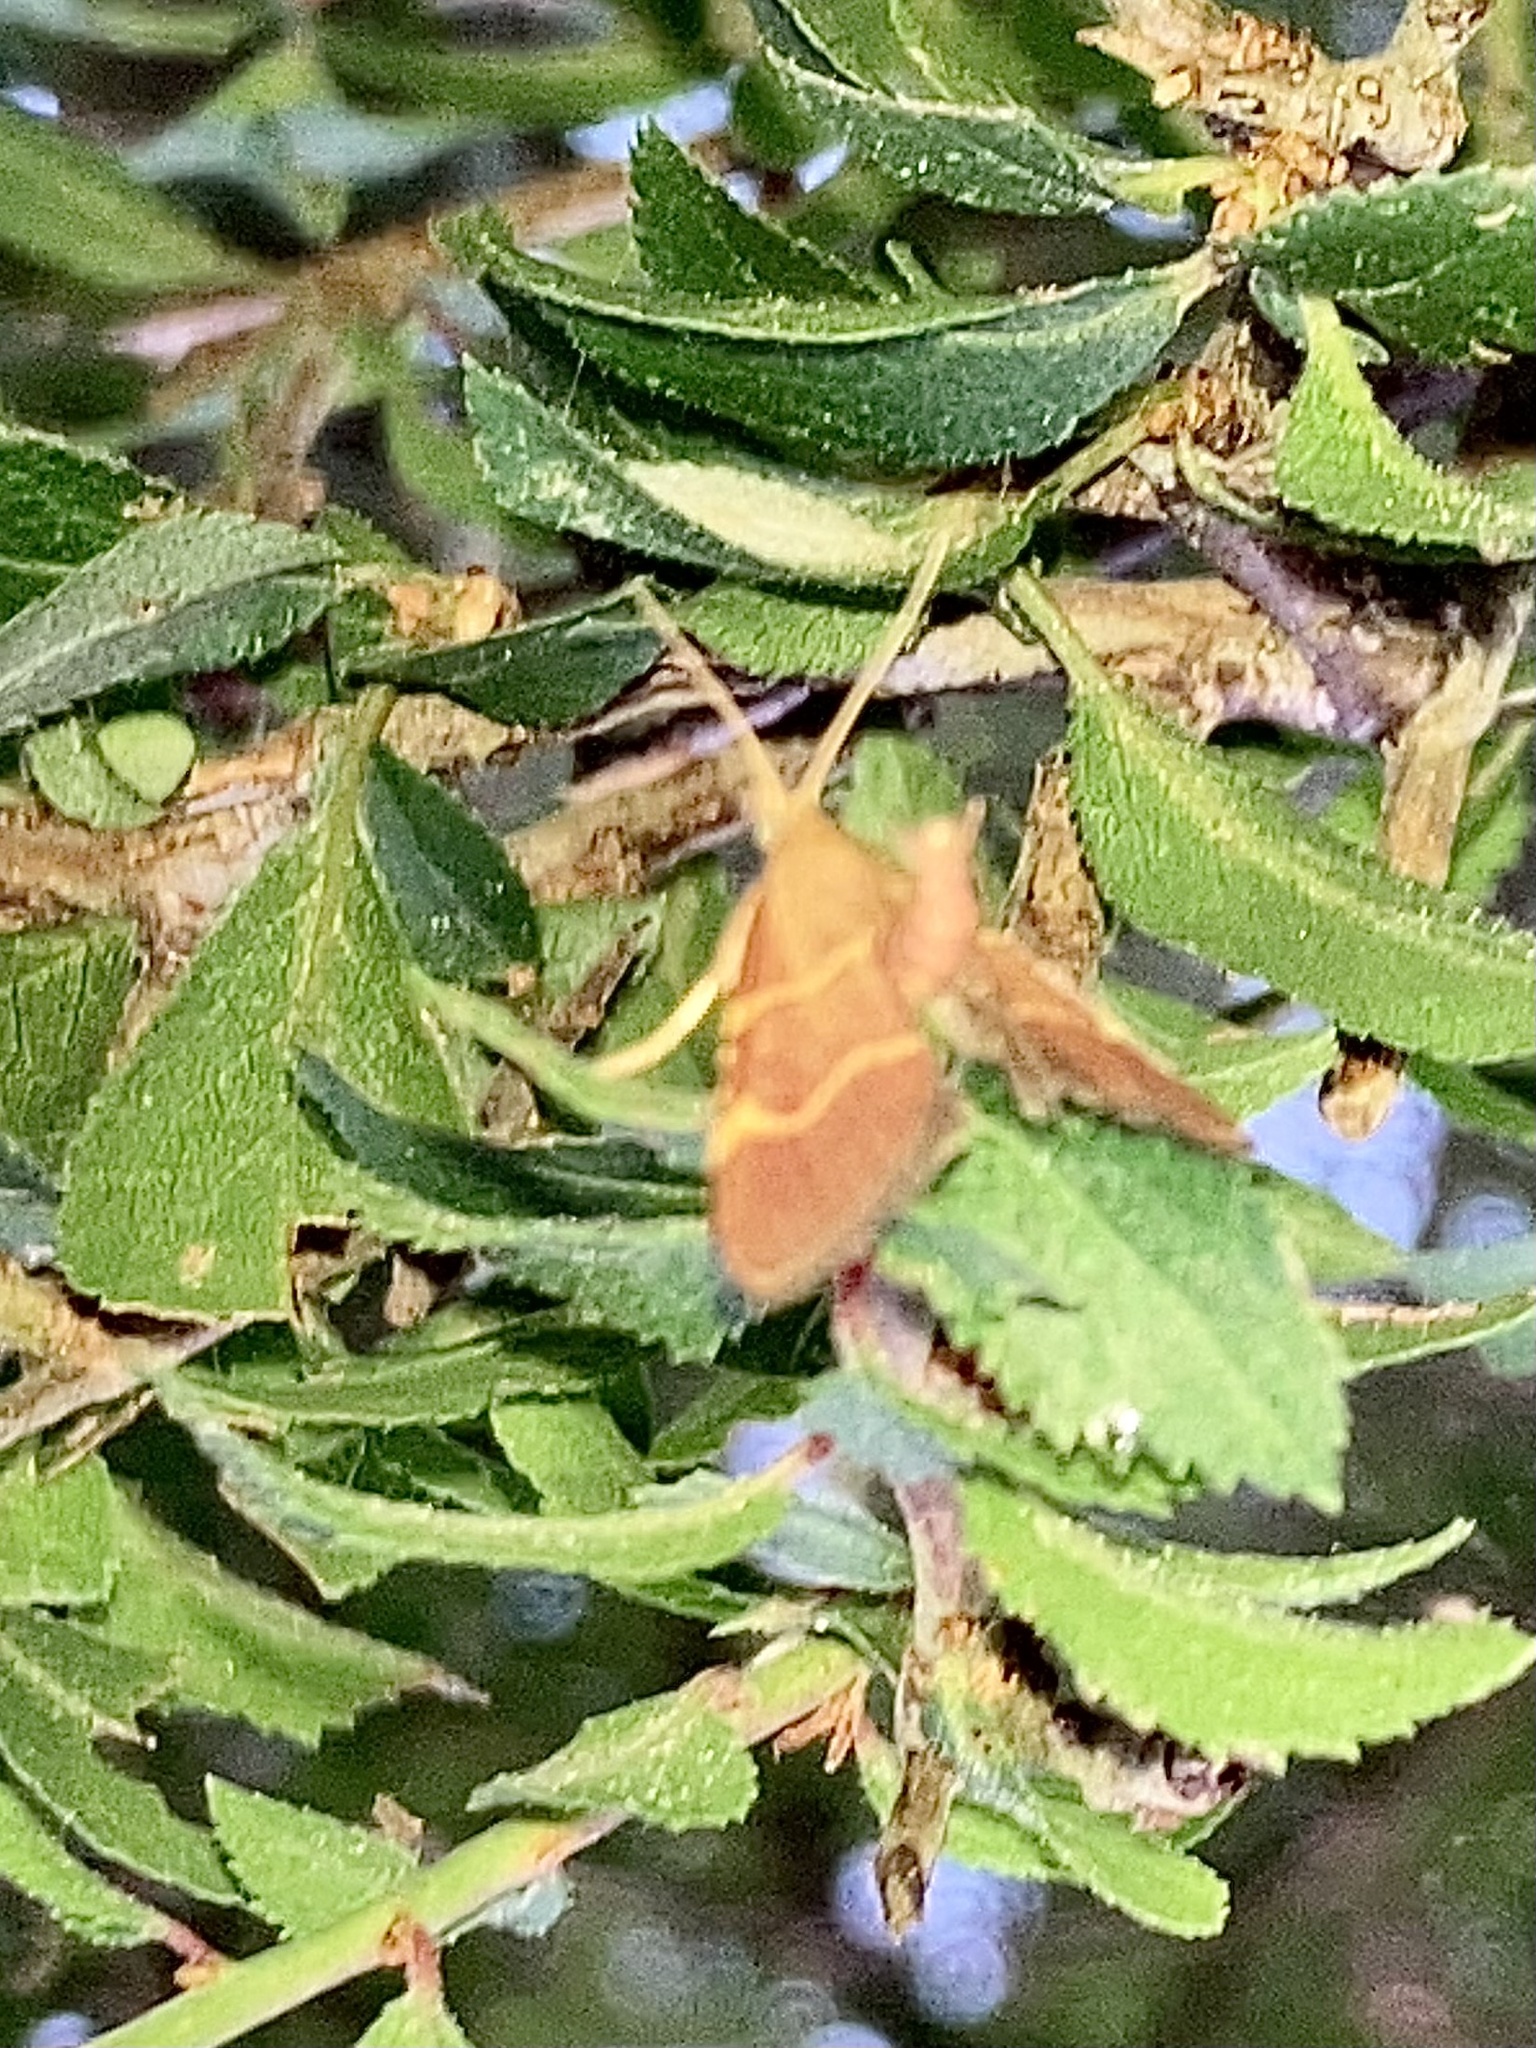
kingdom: Animalia
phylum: Arthropoda
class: Insecta
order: Lepidoptera
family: Pyralidae
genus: Herculia
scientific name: Herculia rubidalis
